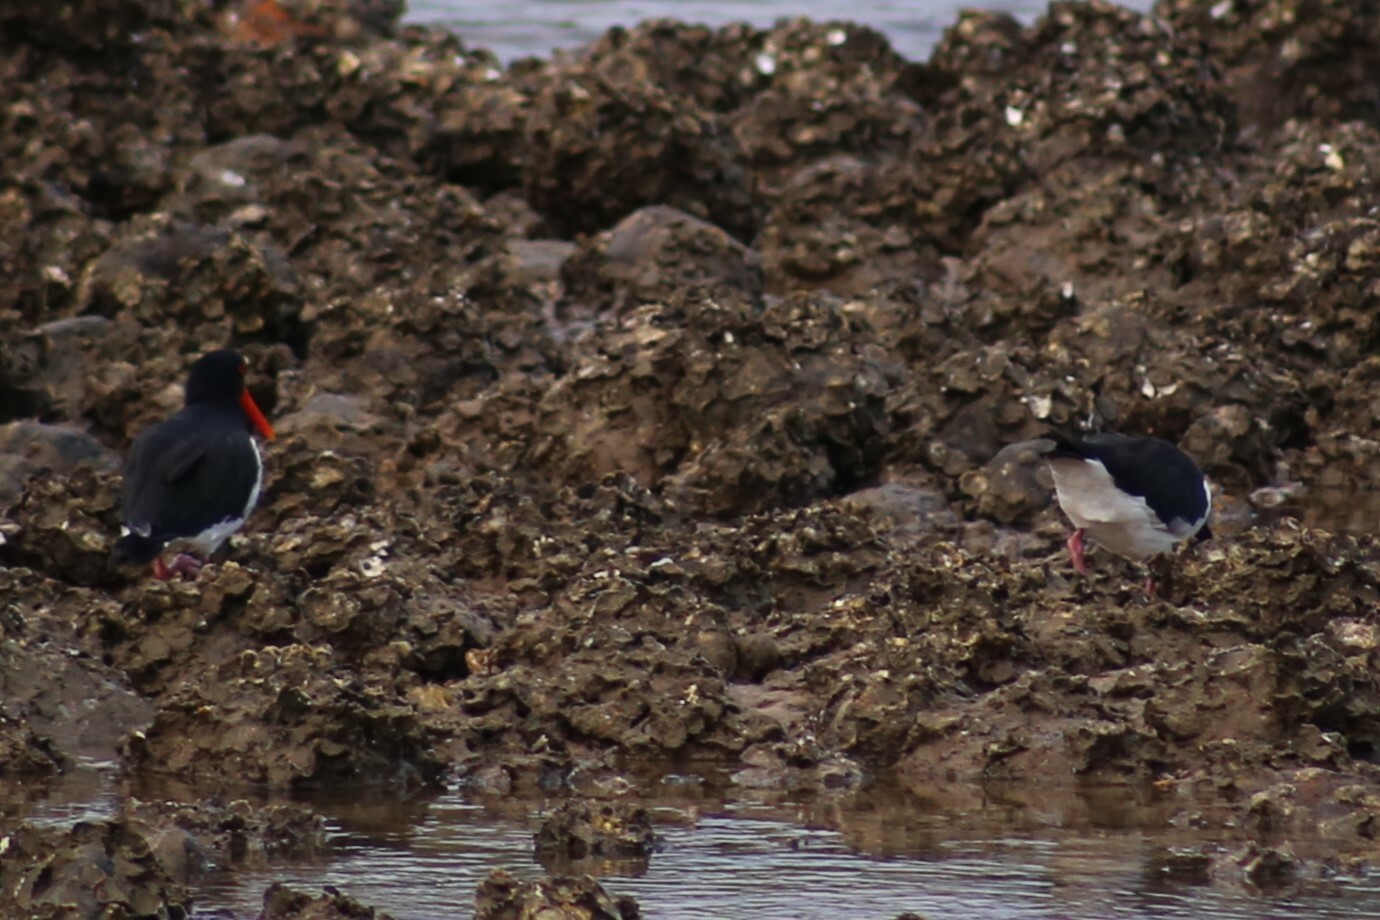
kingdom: Animalia
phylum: Chordata
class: Aves
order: Charadriiformes
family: Haematopodidae
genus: Haematopus
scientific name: Haematopus longirostris
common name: Pied oystercatcher
